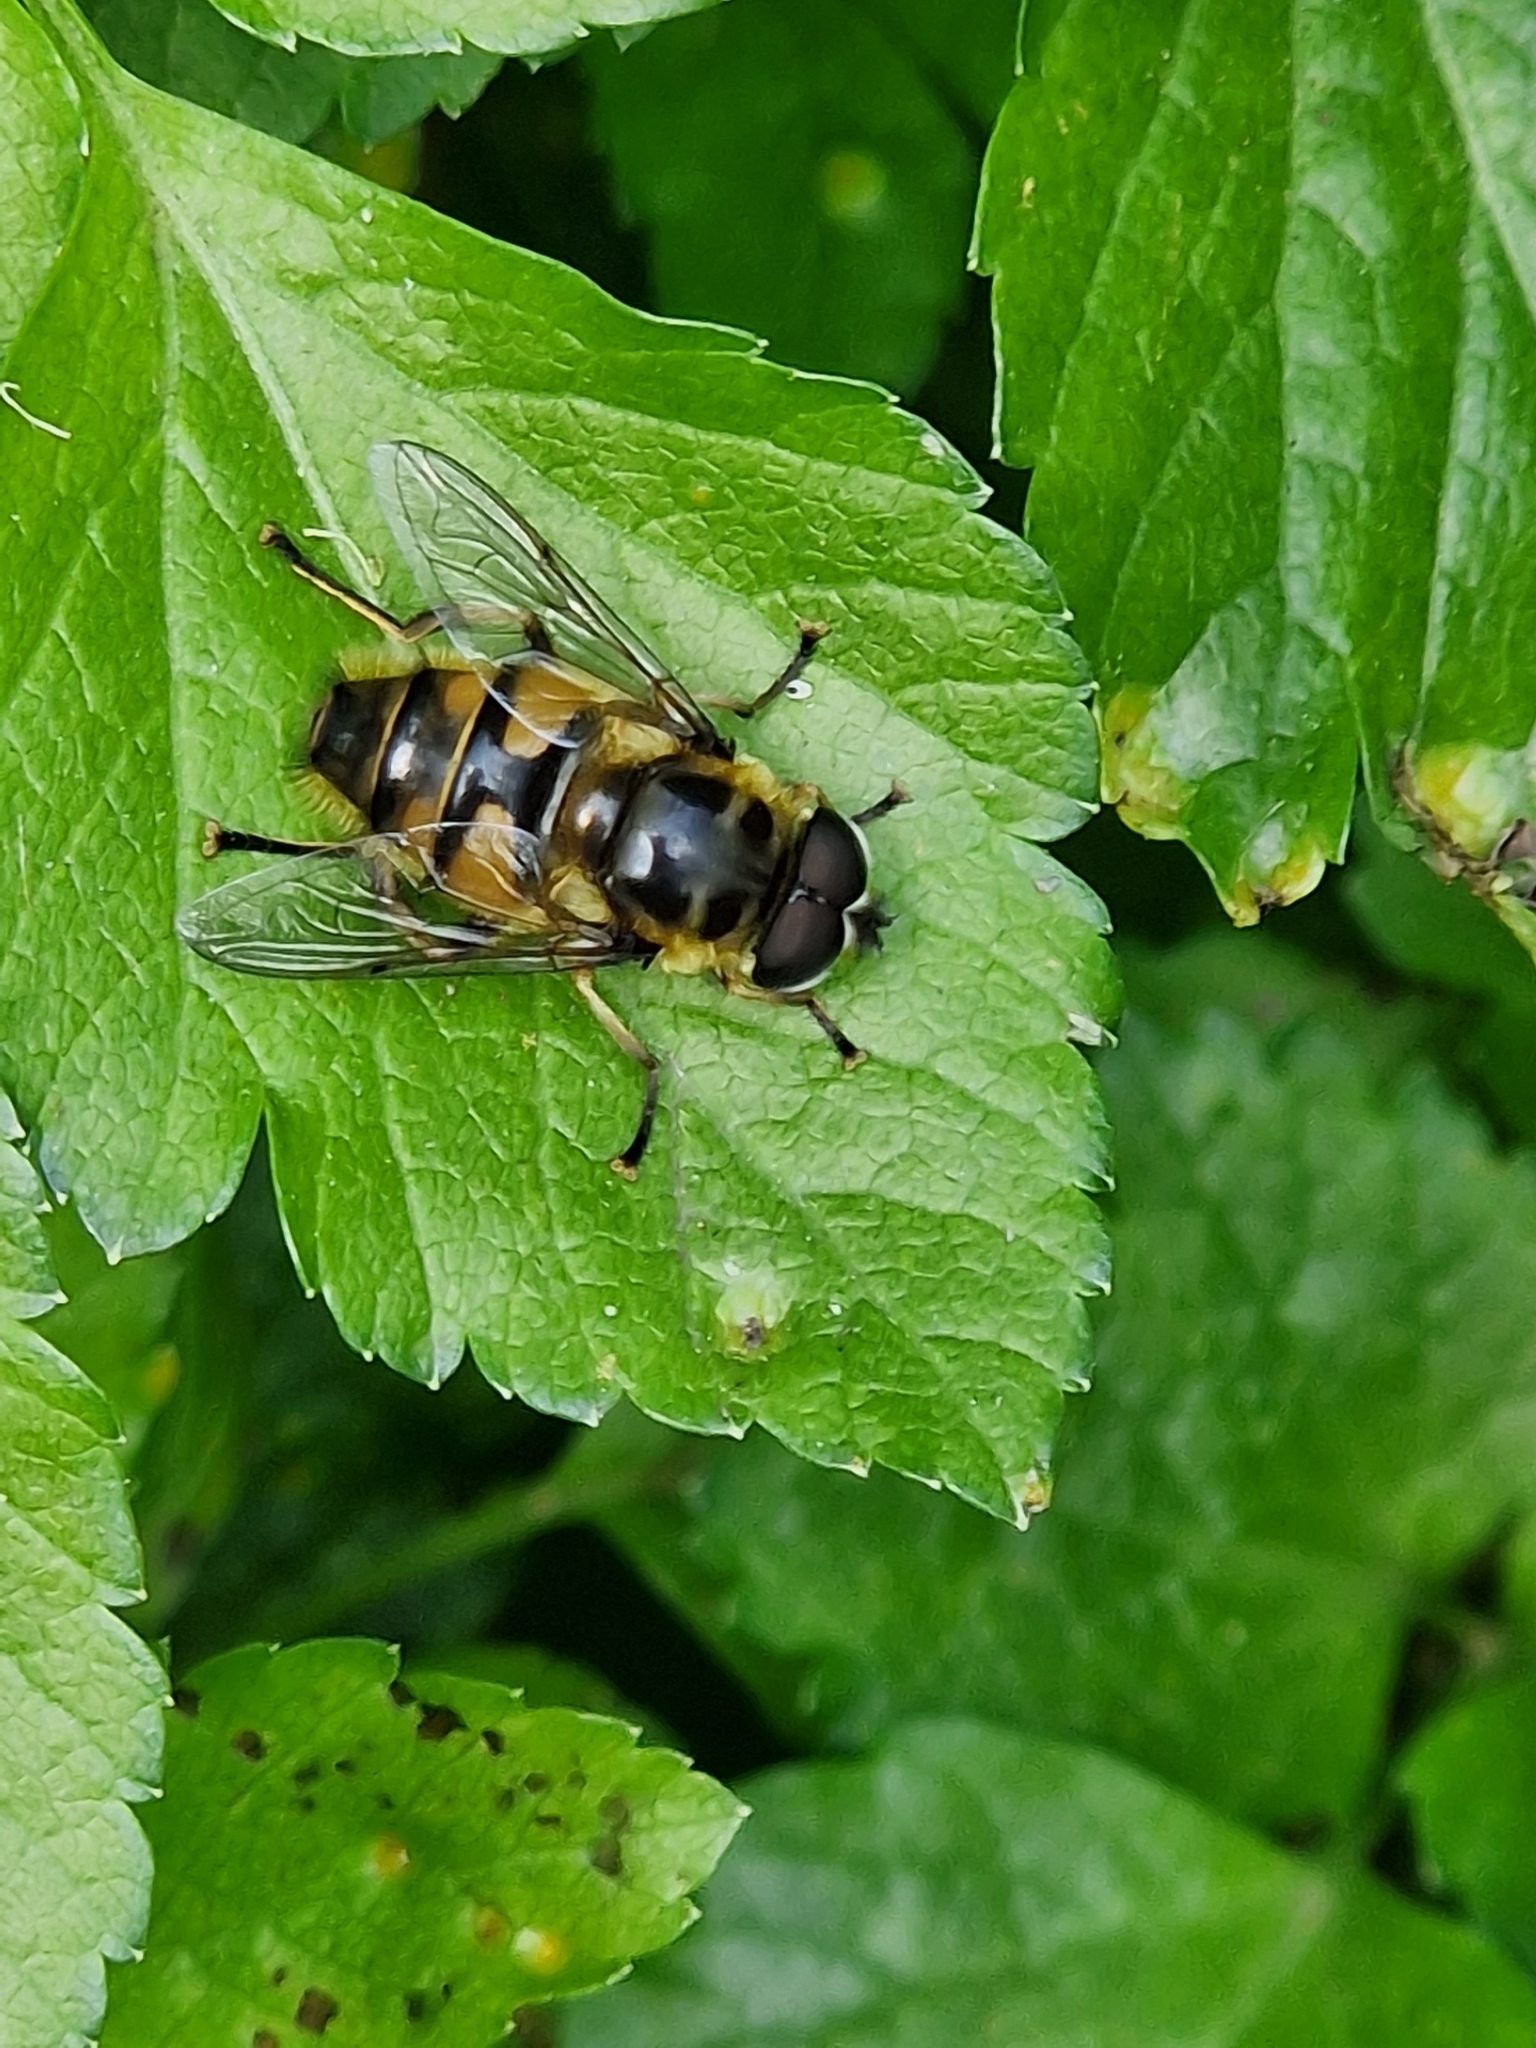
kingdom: Animalia
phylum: Arthropoda
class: Insecta
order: Diptera
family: Syrphidae
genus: Myathropa
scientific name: Myathropa florea
